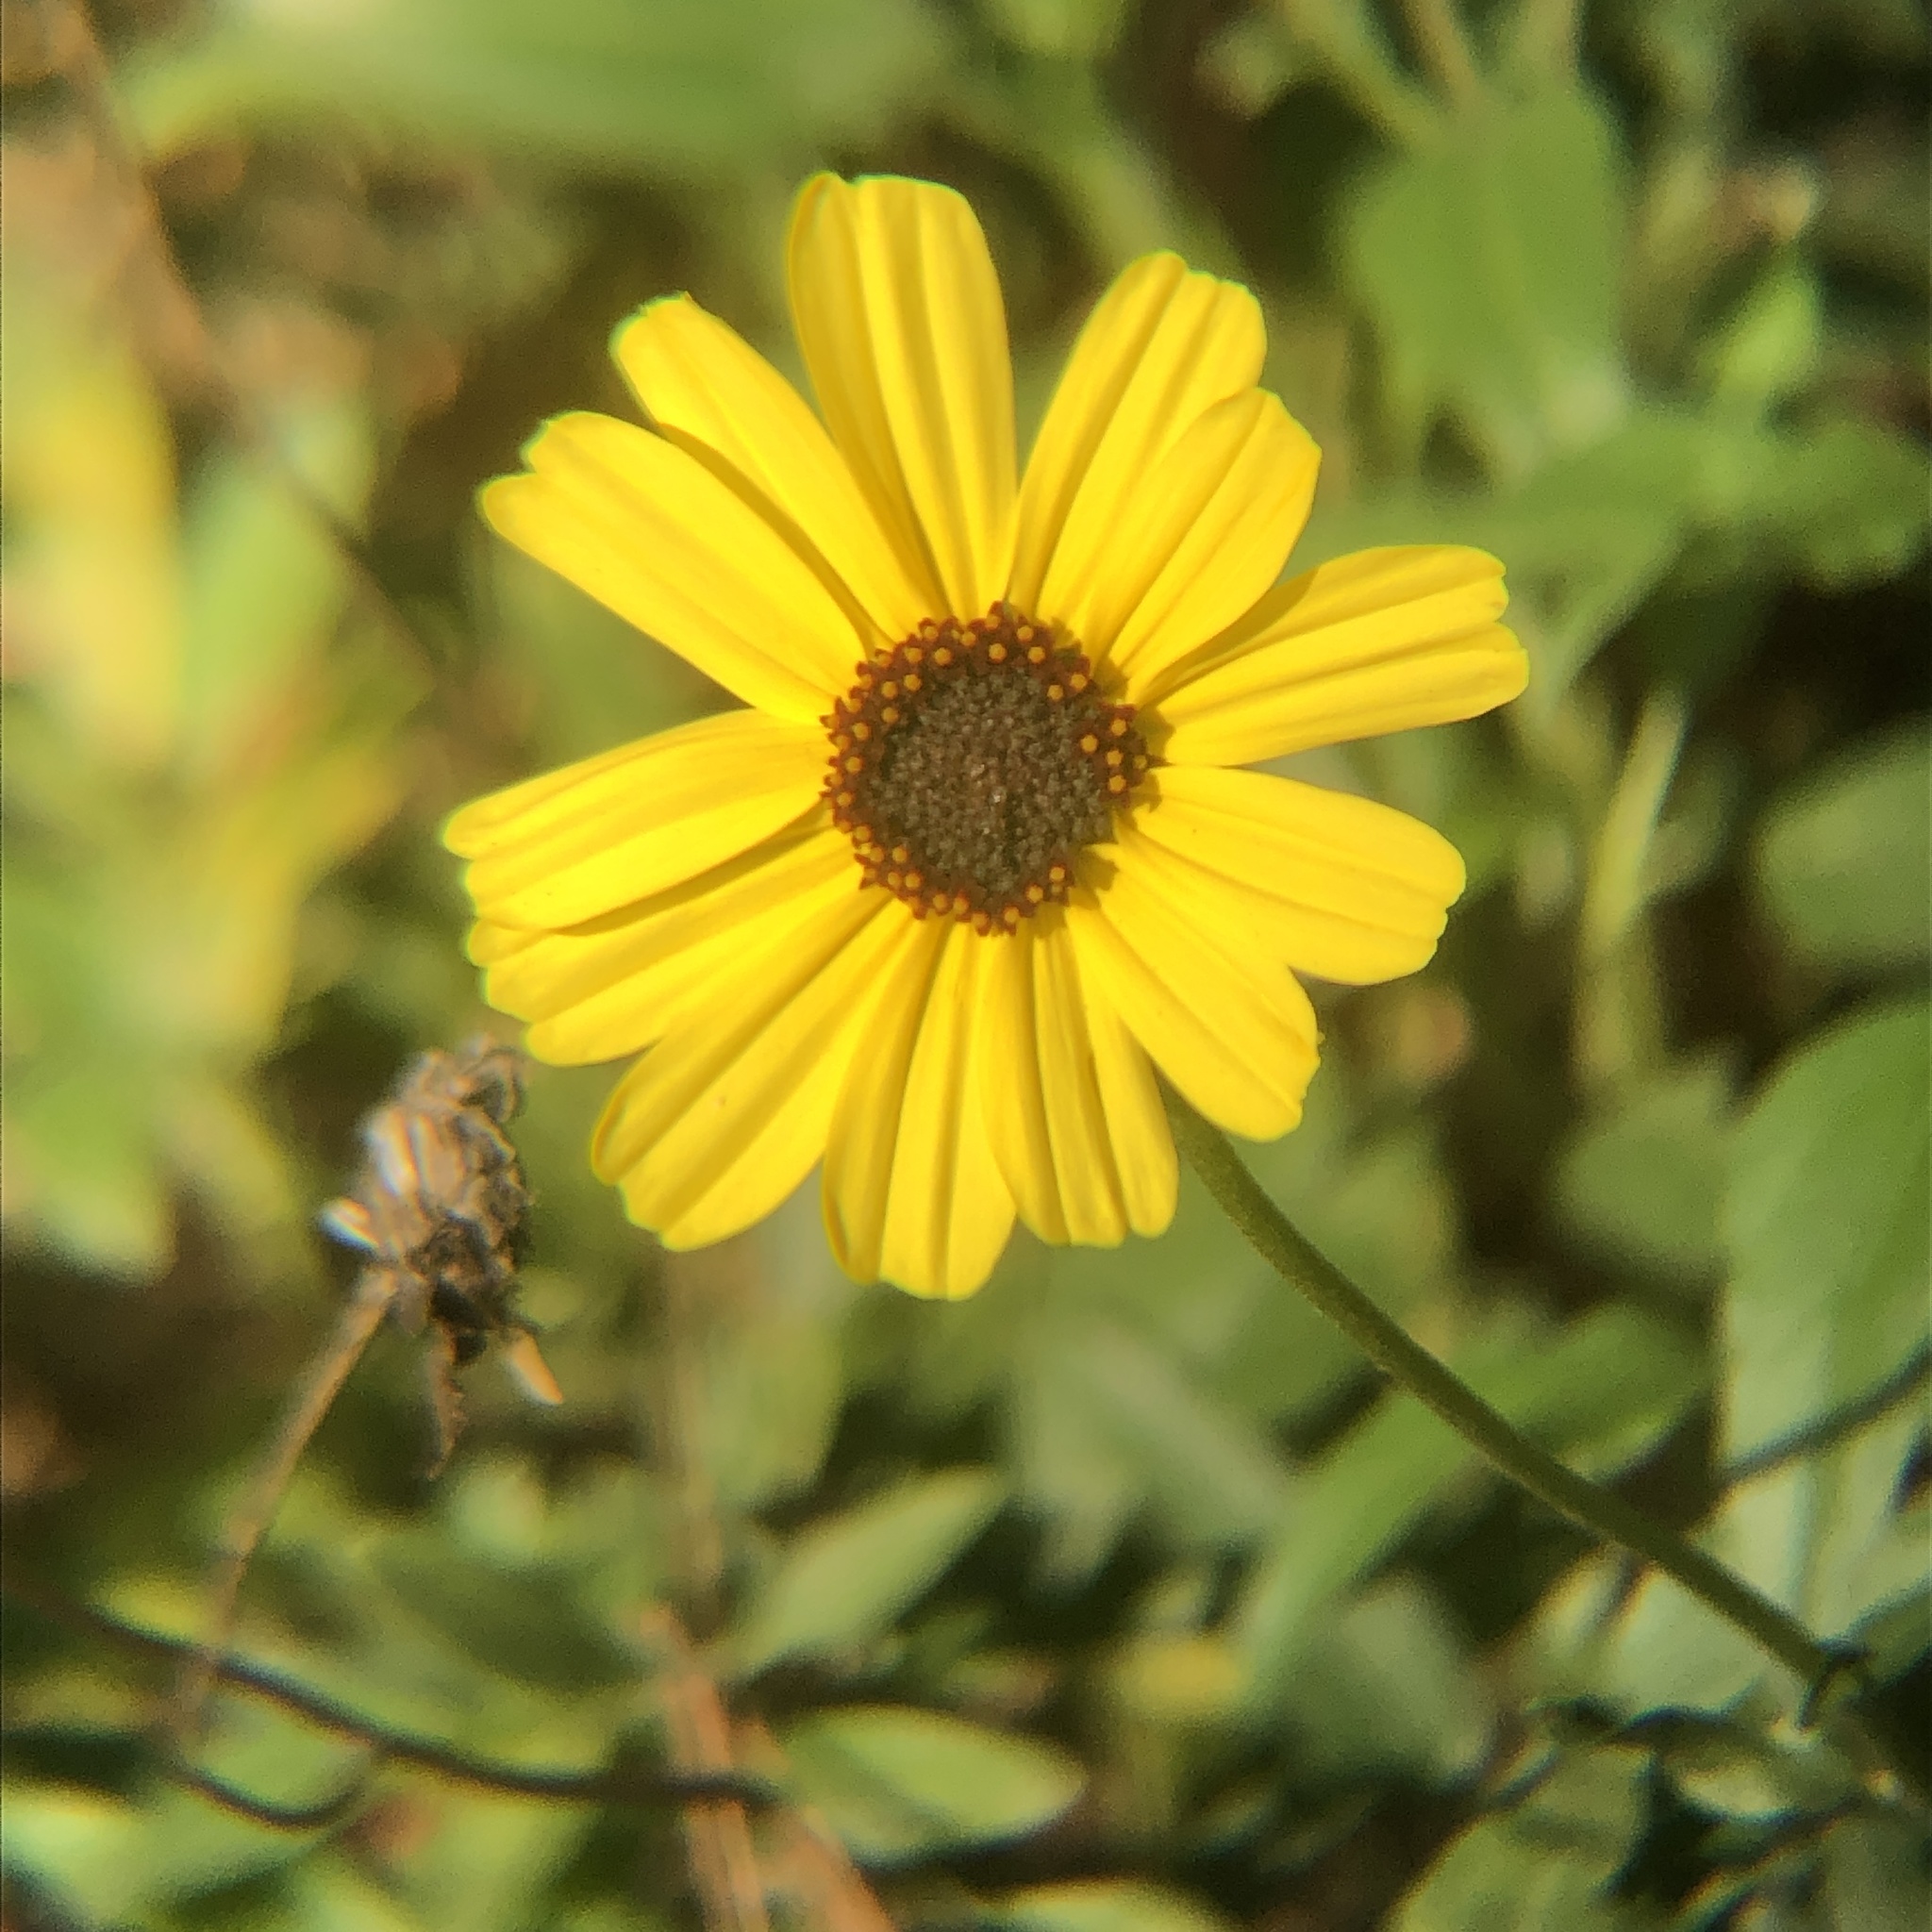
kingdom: Plantae
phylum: Tracheophyta
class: Magnoliopsida
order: Asterales
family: Asteraceae
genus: Encelia
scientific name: Encelia californica
